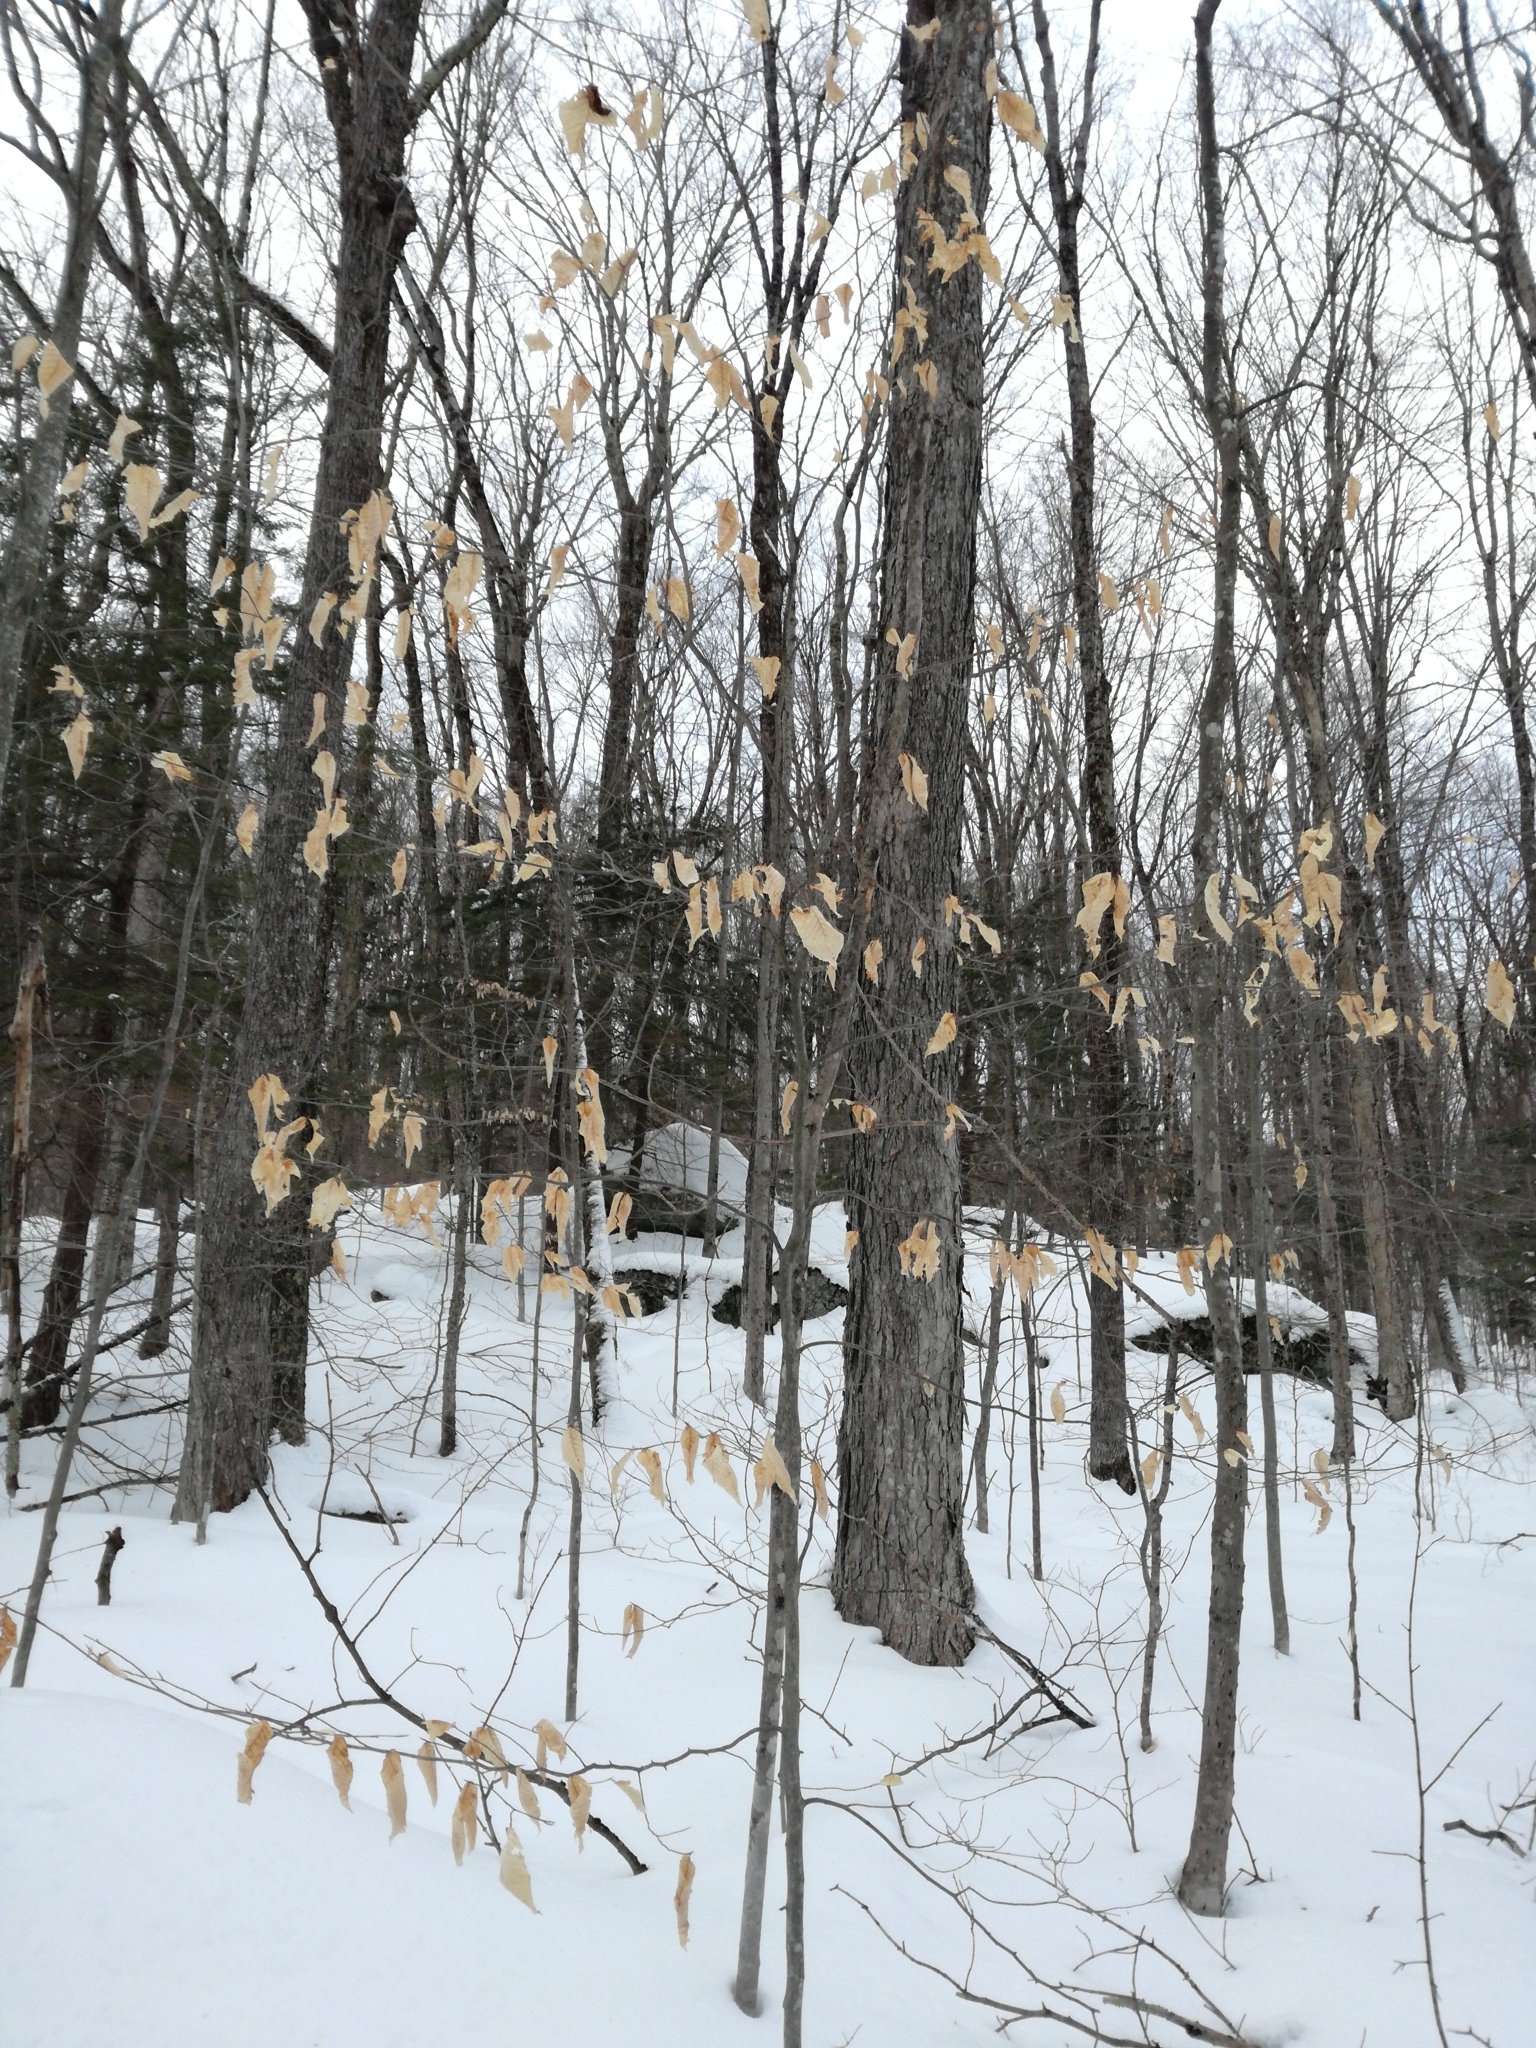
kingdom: Plantae
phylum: Tracheophyta
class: Magnoliopsida
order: Fagales
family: Fagaceae
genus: Fagus
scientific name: Fagus grandifolia
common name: American beech
